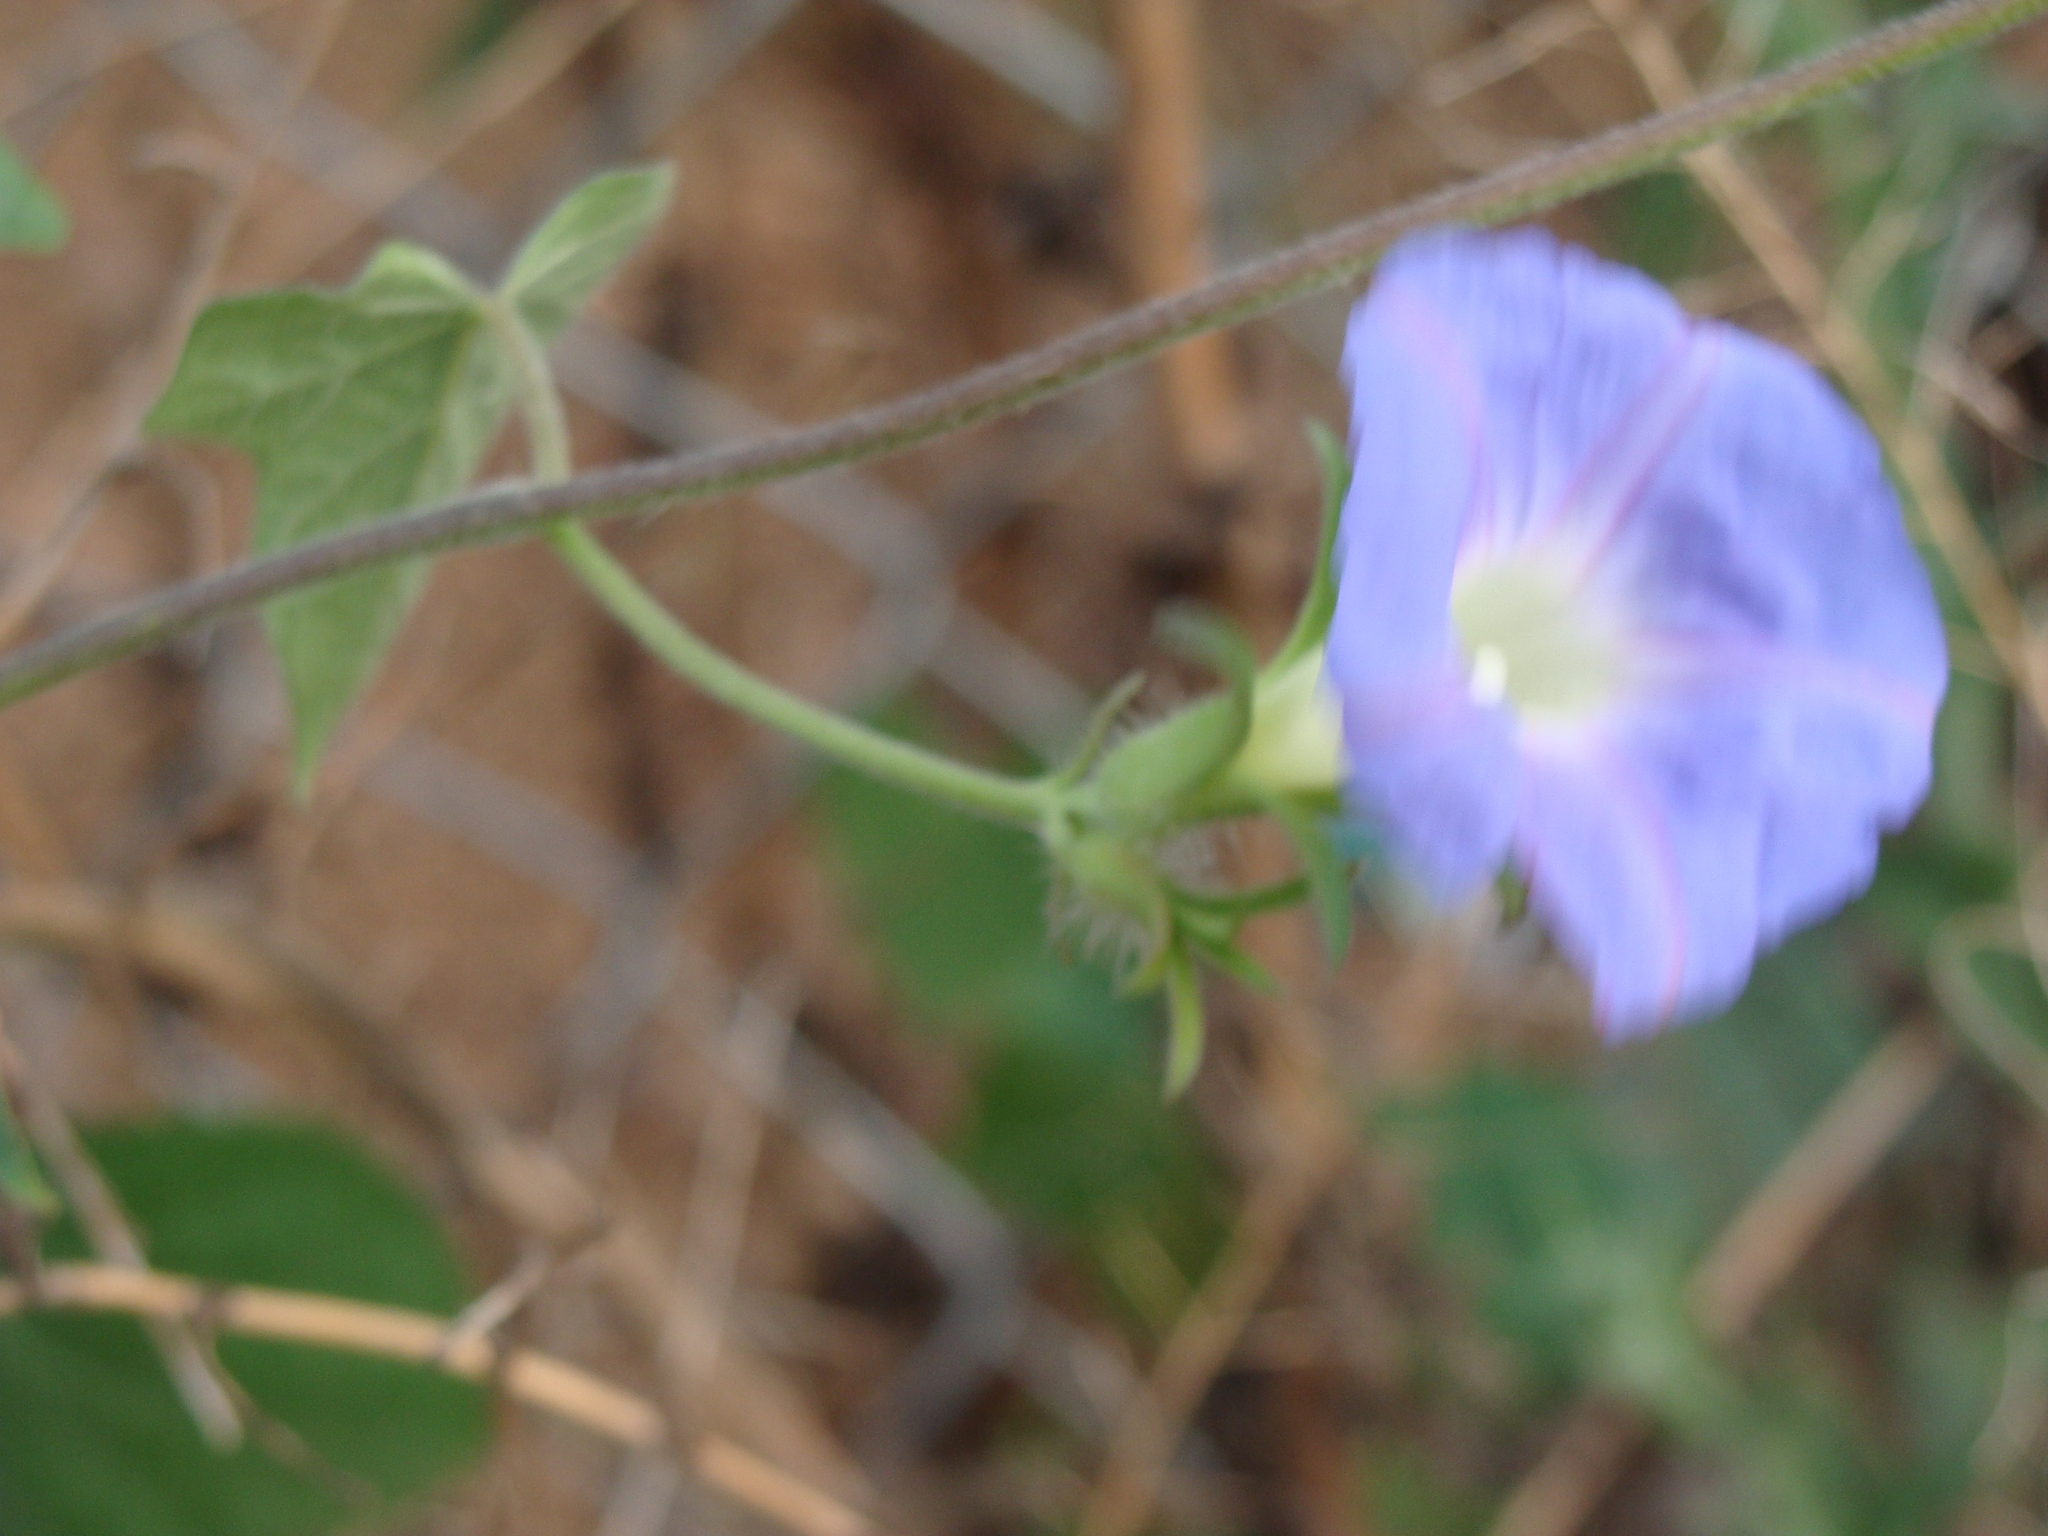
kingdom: Plantae
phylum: Tracheophyta
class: Magnoliopsida
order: Solanales
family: Convolvulaceae
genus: Ipomoea
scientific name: Ipomoea hederacea
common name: Ivy-leaved morning-glory
